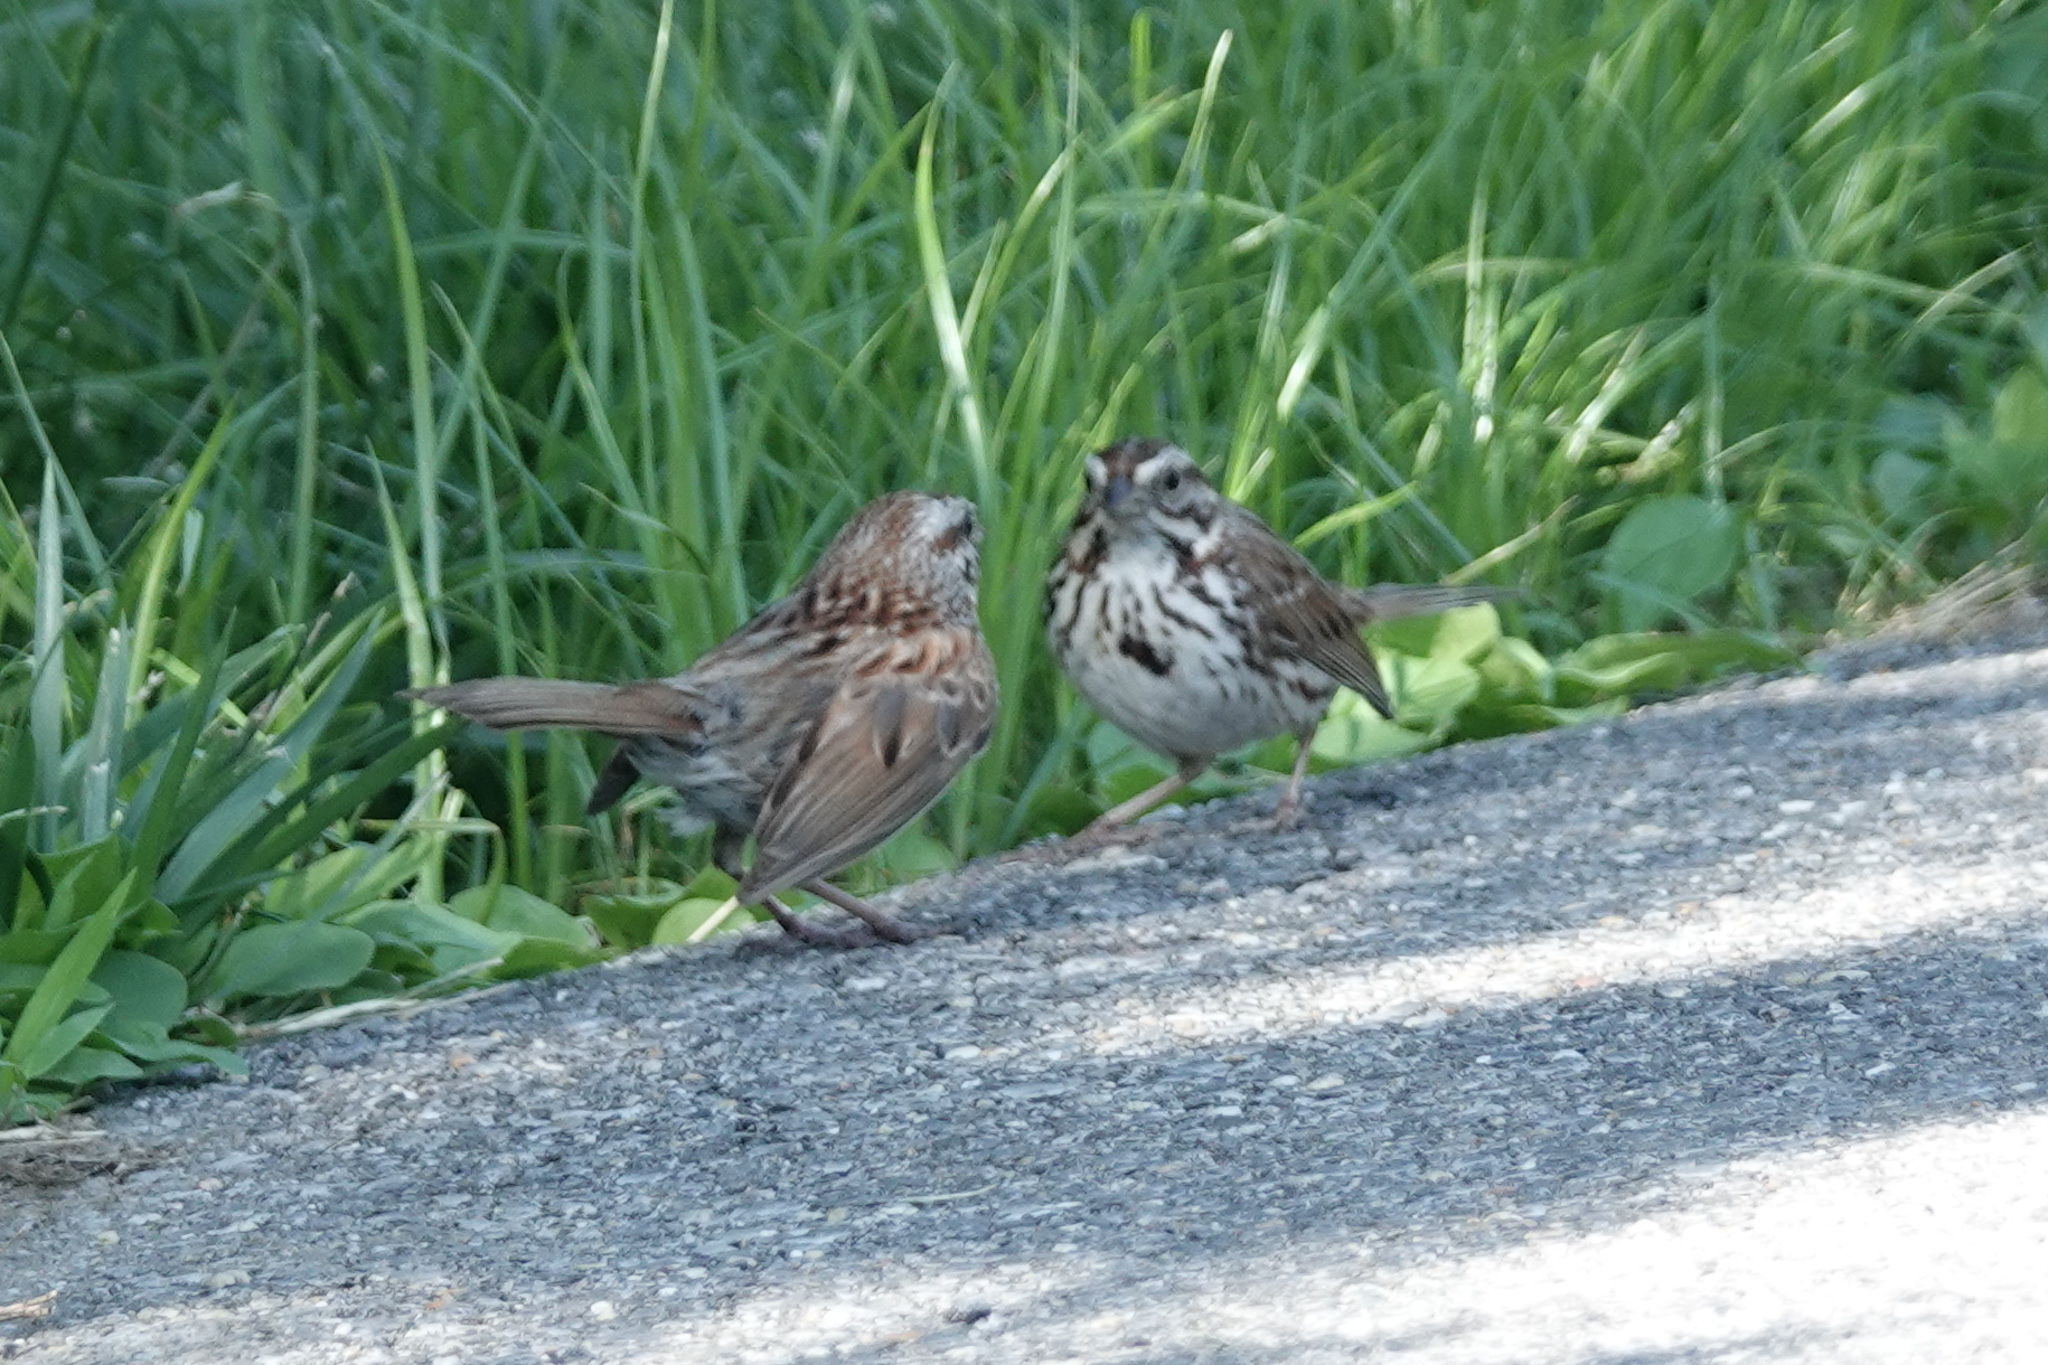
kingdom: Animalia
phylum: Chordata
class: Aves
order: Passeriformes
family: Passerellidae
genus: Melospiza
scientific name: Melospiza melodia
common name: Song sparrow
